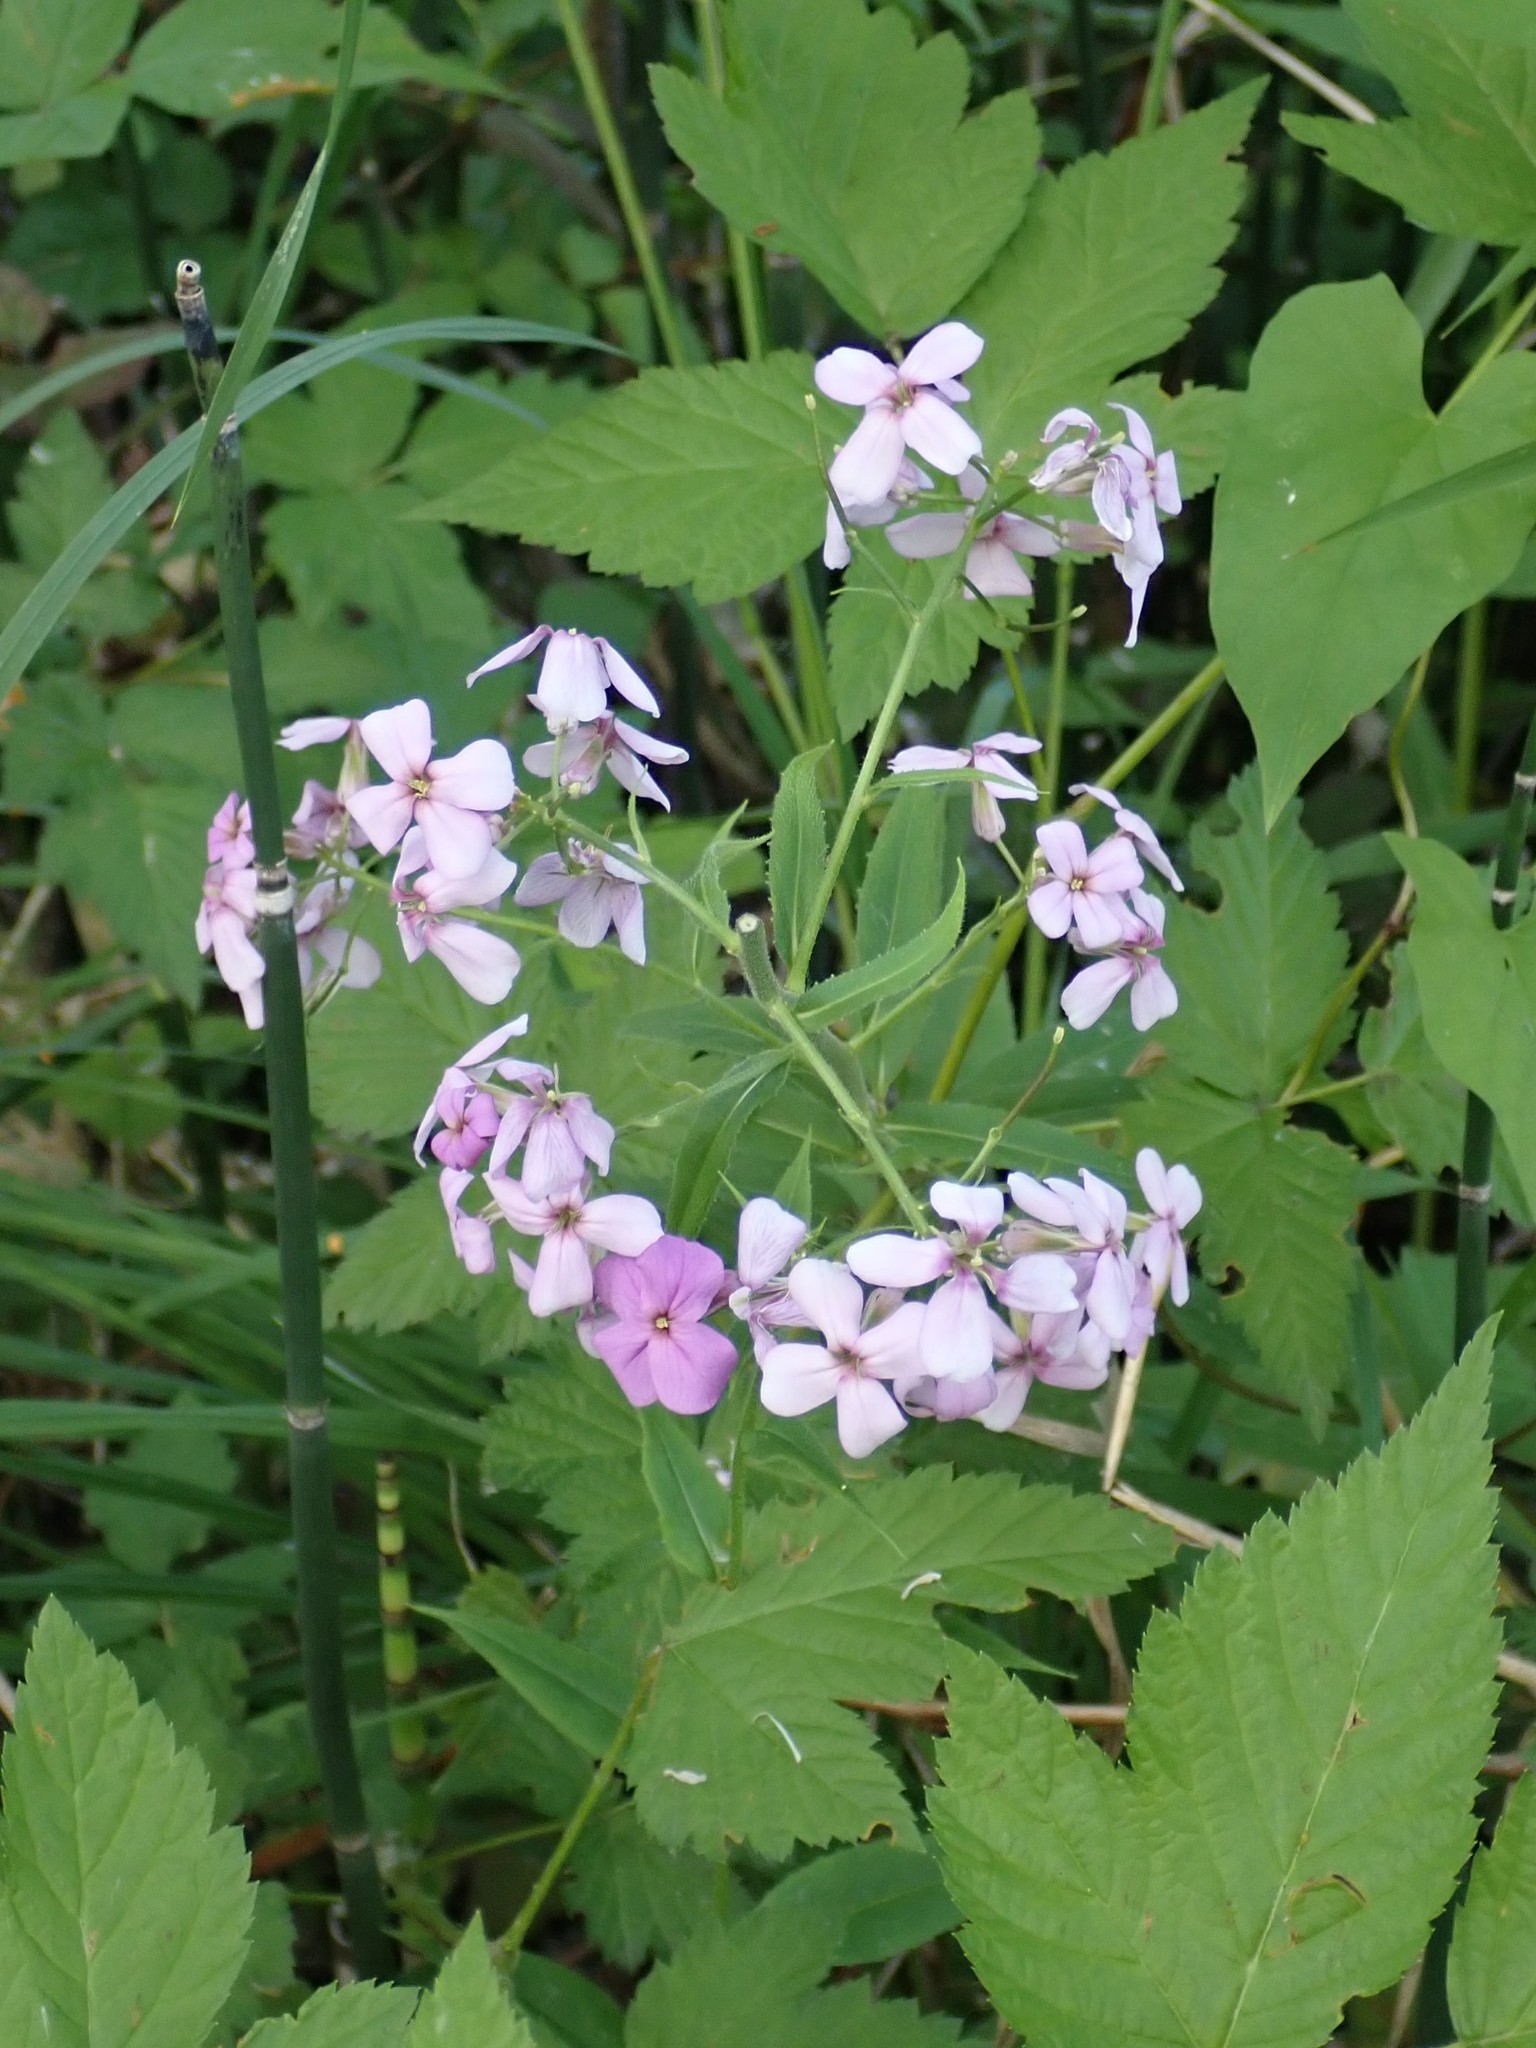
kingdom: Plantae
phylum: Tracheophyta
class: Magnoliopsida
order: Brassicales
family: Brassicaceae
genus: Hesperis
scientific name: Hesperis matronalis
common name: Dame's-violet
